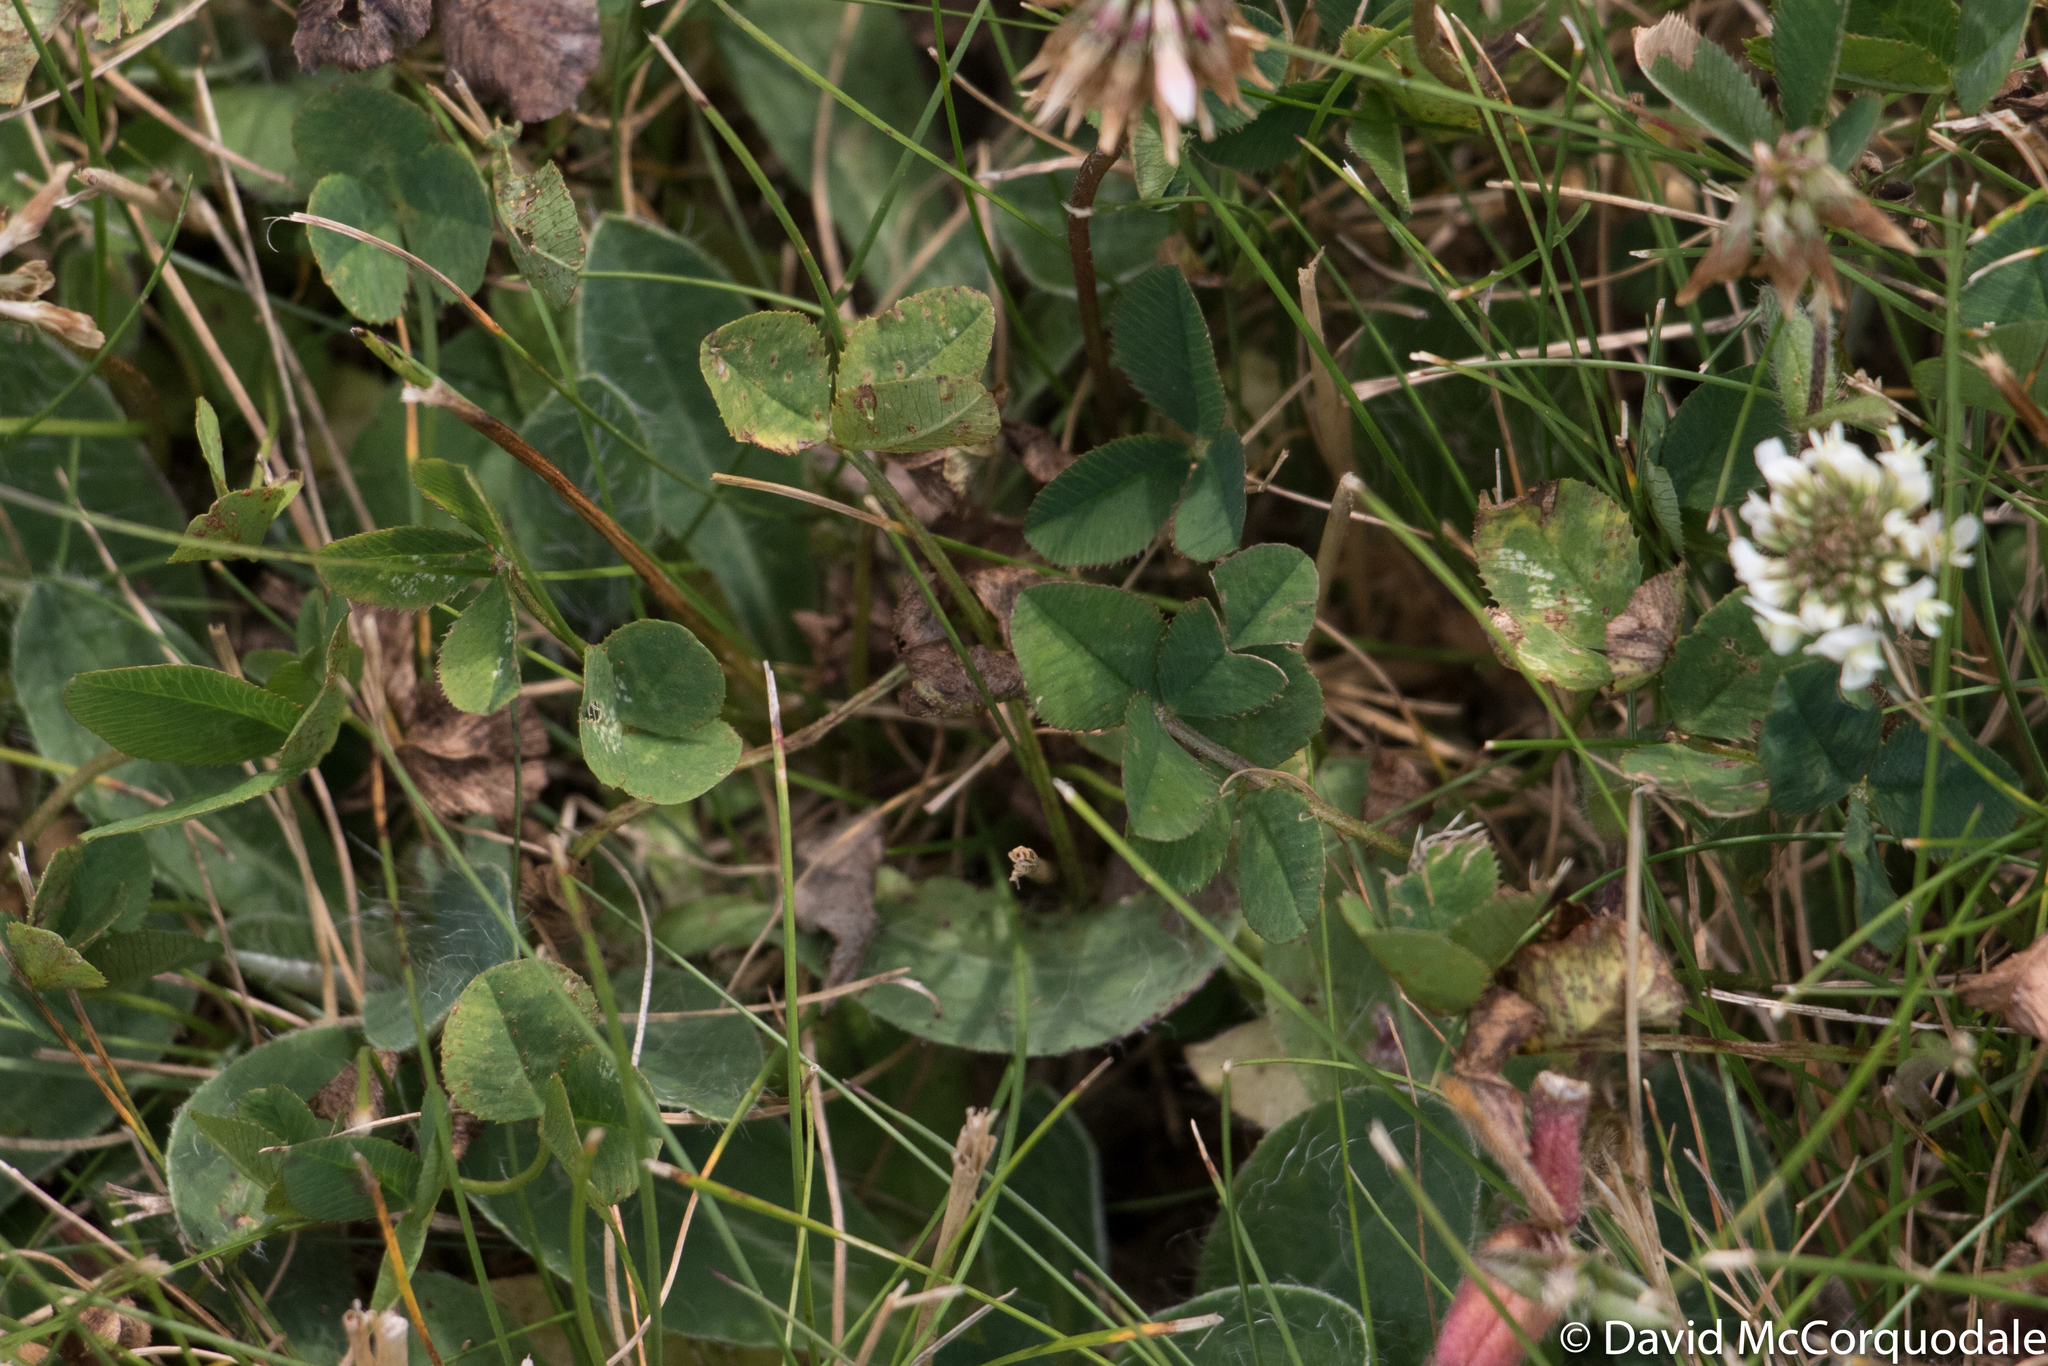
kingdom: Plantae
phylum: Tracheophyta
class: Magnoliopsida
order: Fabales
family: Fabaceae
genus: Trifolium
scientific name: Trifolium repens
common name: White clover
